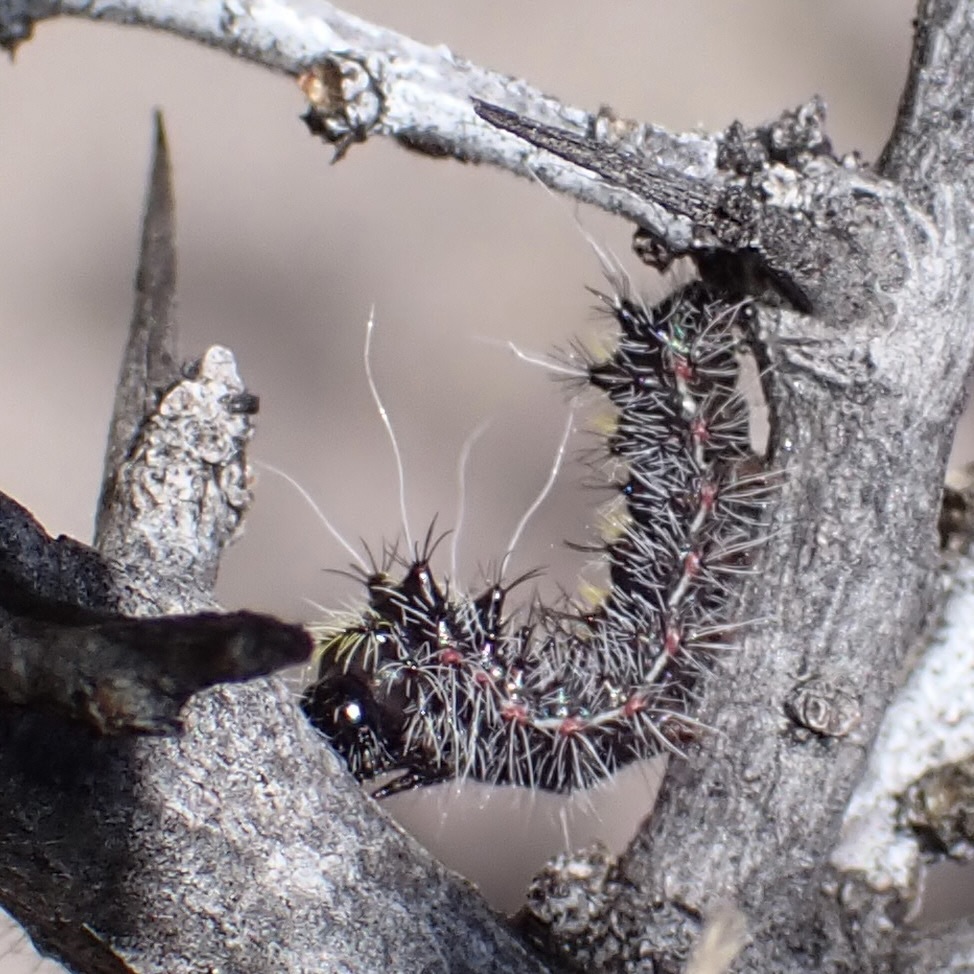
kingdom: Animalia
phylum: Arthropoda
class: Insecta
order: Lepidoptera
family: Saturniidae
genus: Saturnia
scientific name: Saturnia anona
